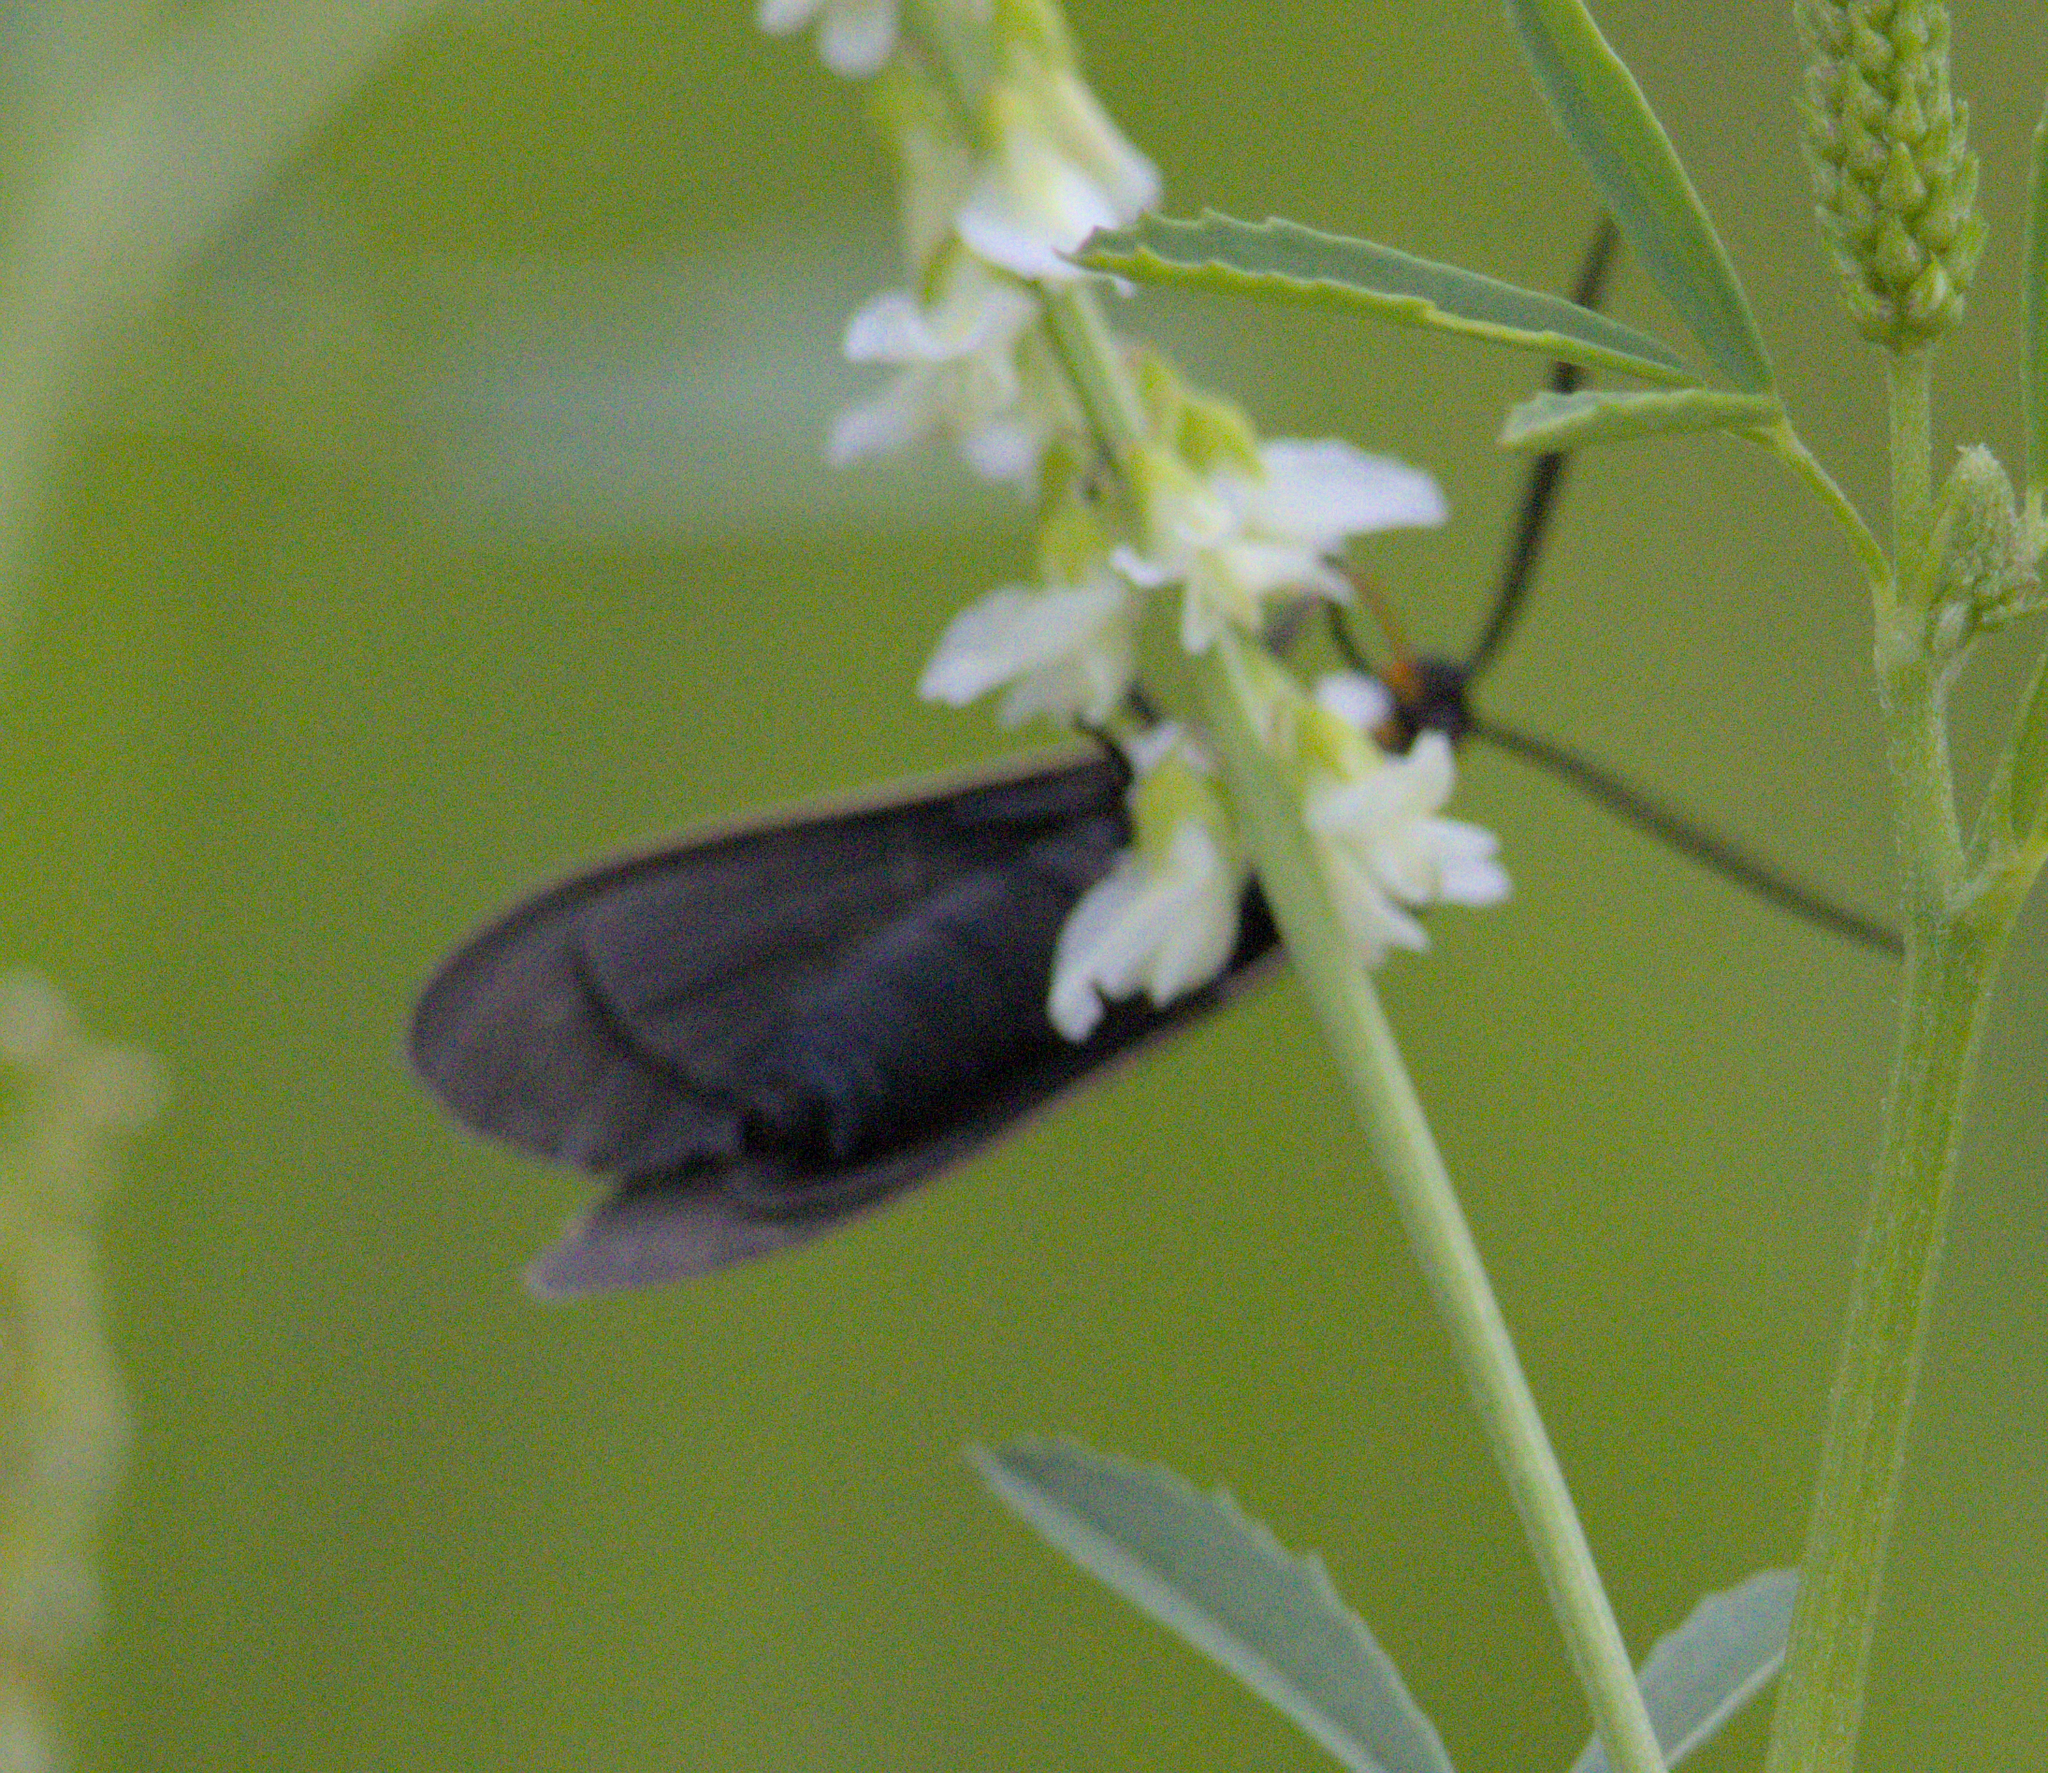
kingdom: Animalia
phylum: Arthropoda
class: Insecta
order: Lepidoptera
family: Erebidae
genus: Cisseps
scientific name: Cisseps fulvicollis
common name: Yellow-collared scape moth
